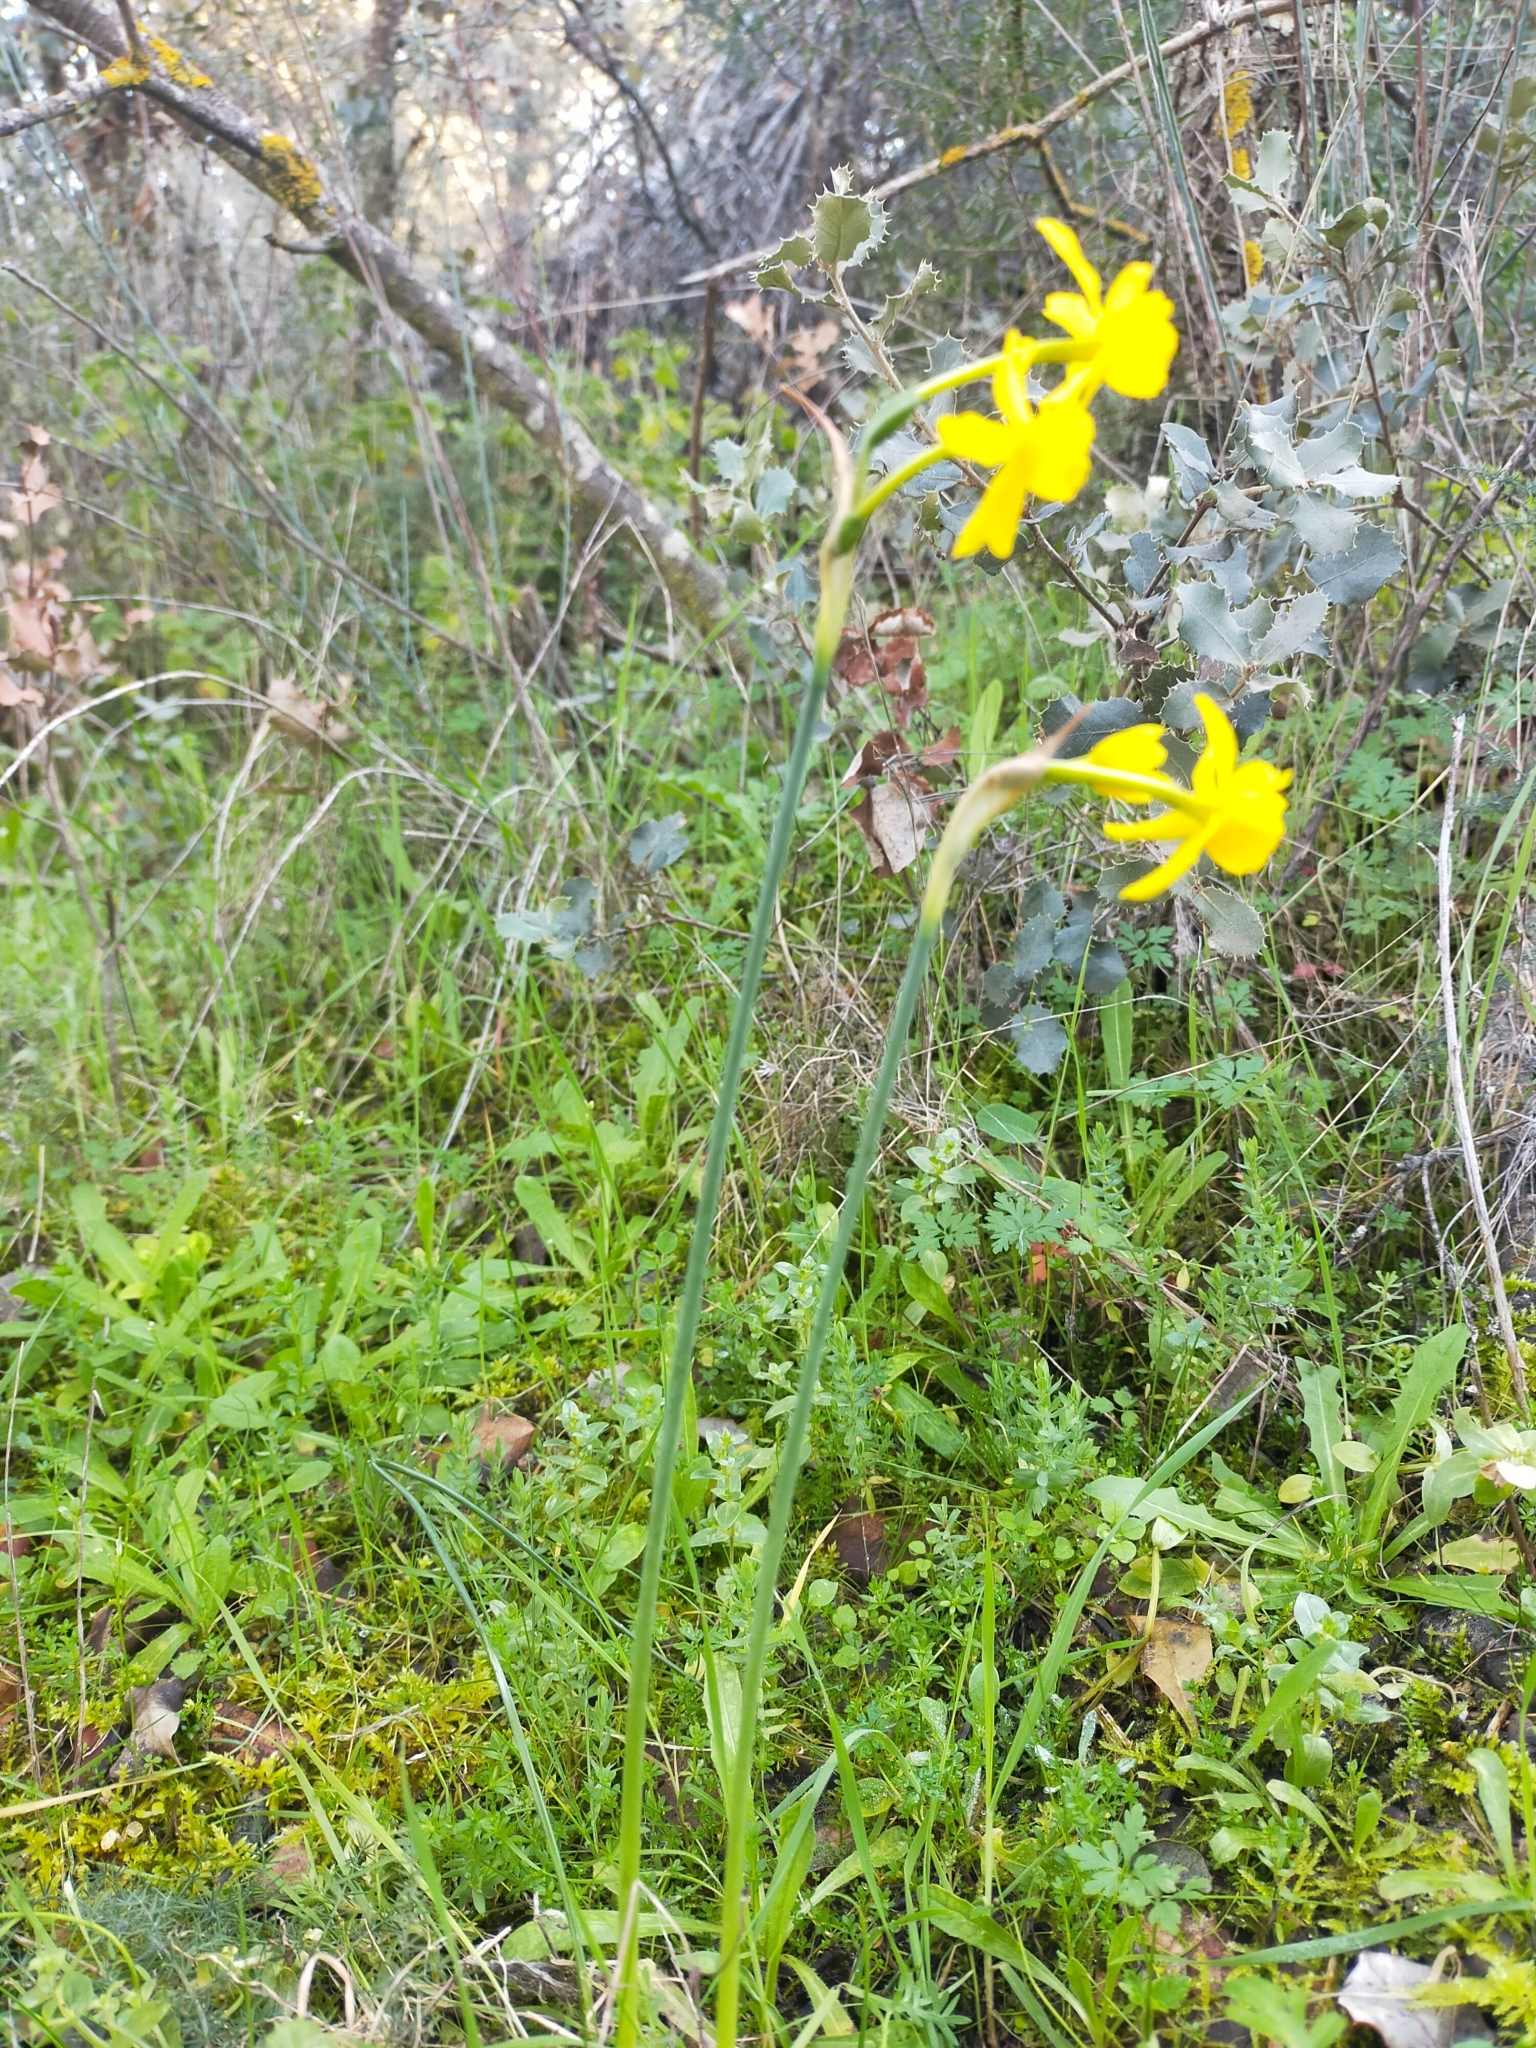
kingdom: Plantae
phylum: Tracheophyta
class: Liliopsida
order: Asparagales
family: Amaryllidaceae
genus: Narcissus
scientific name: Narcissus flavus
